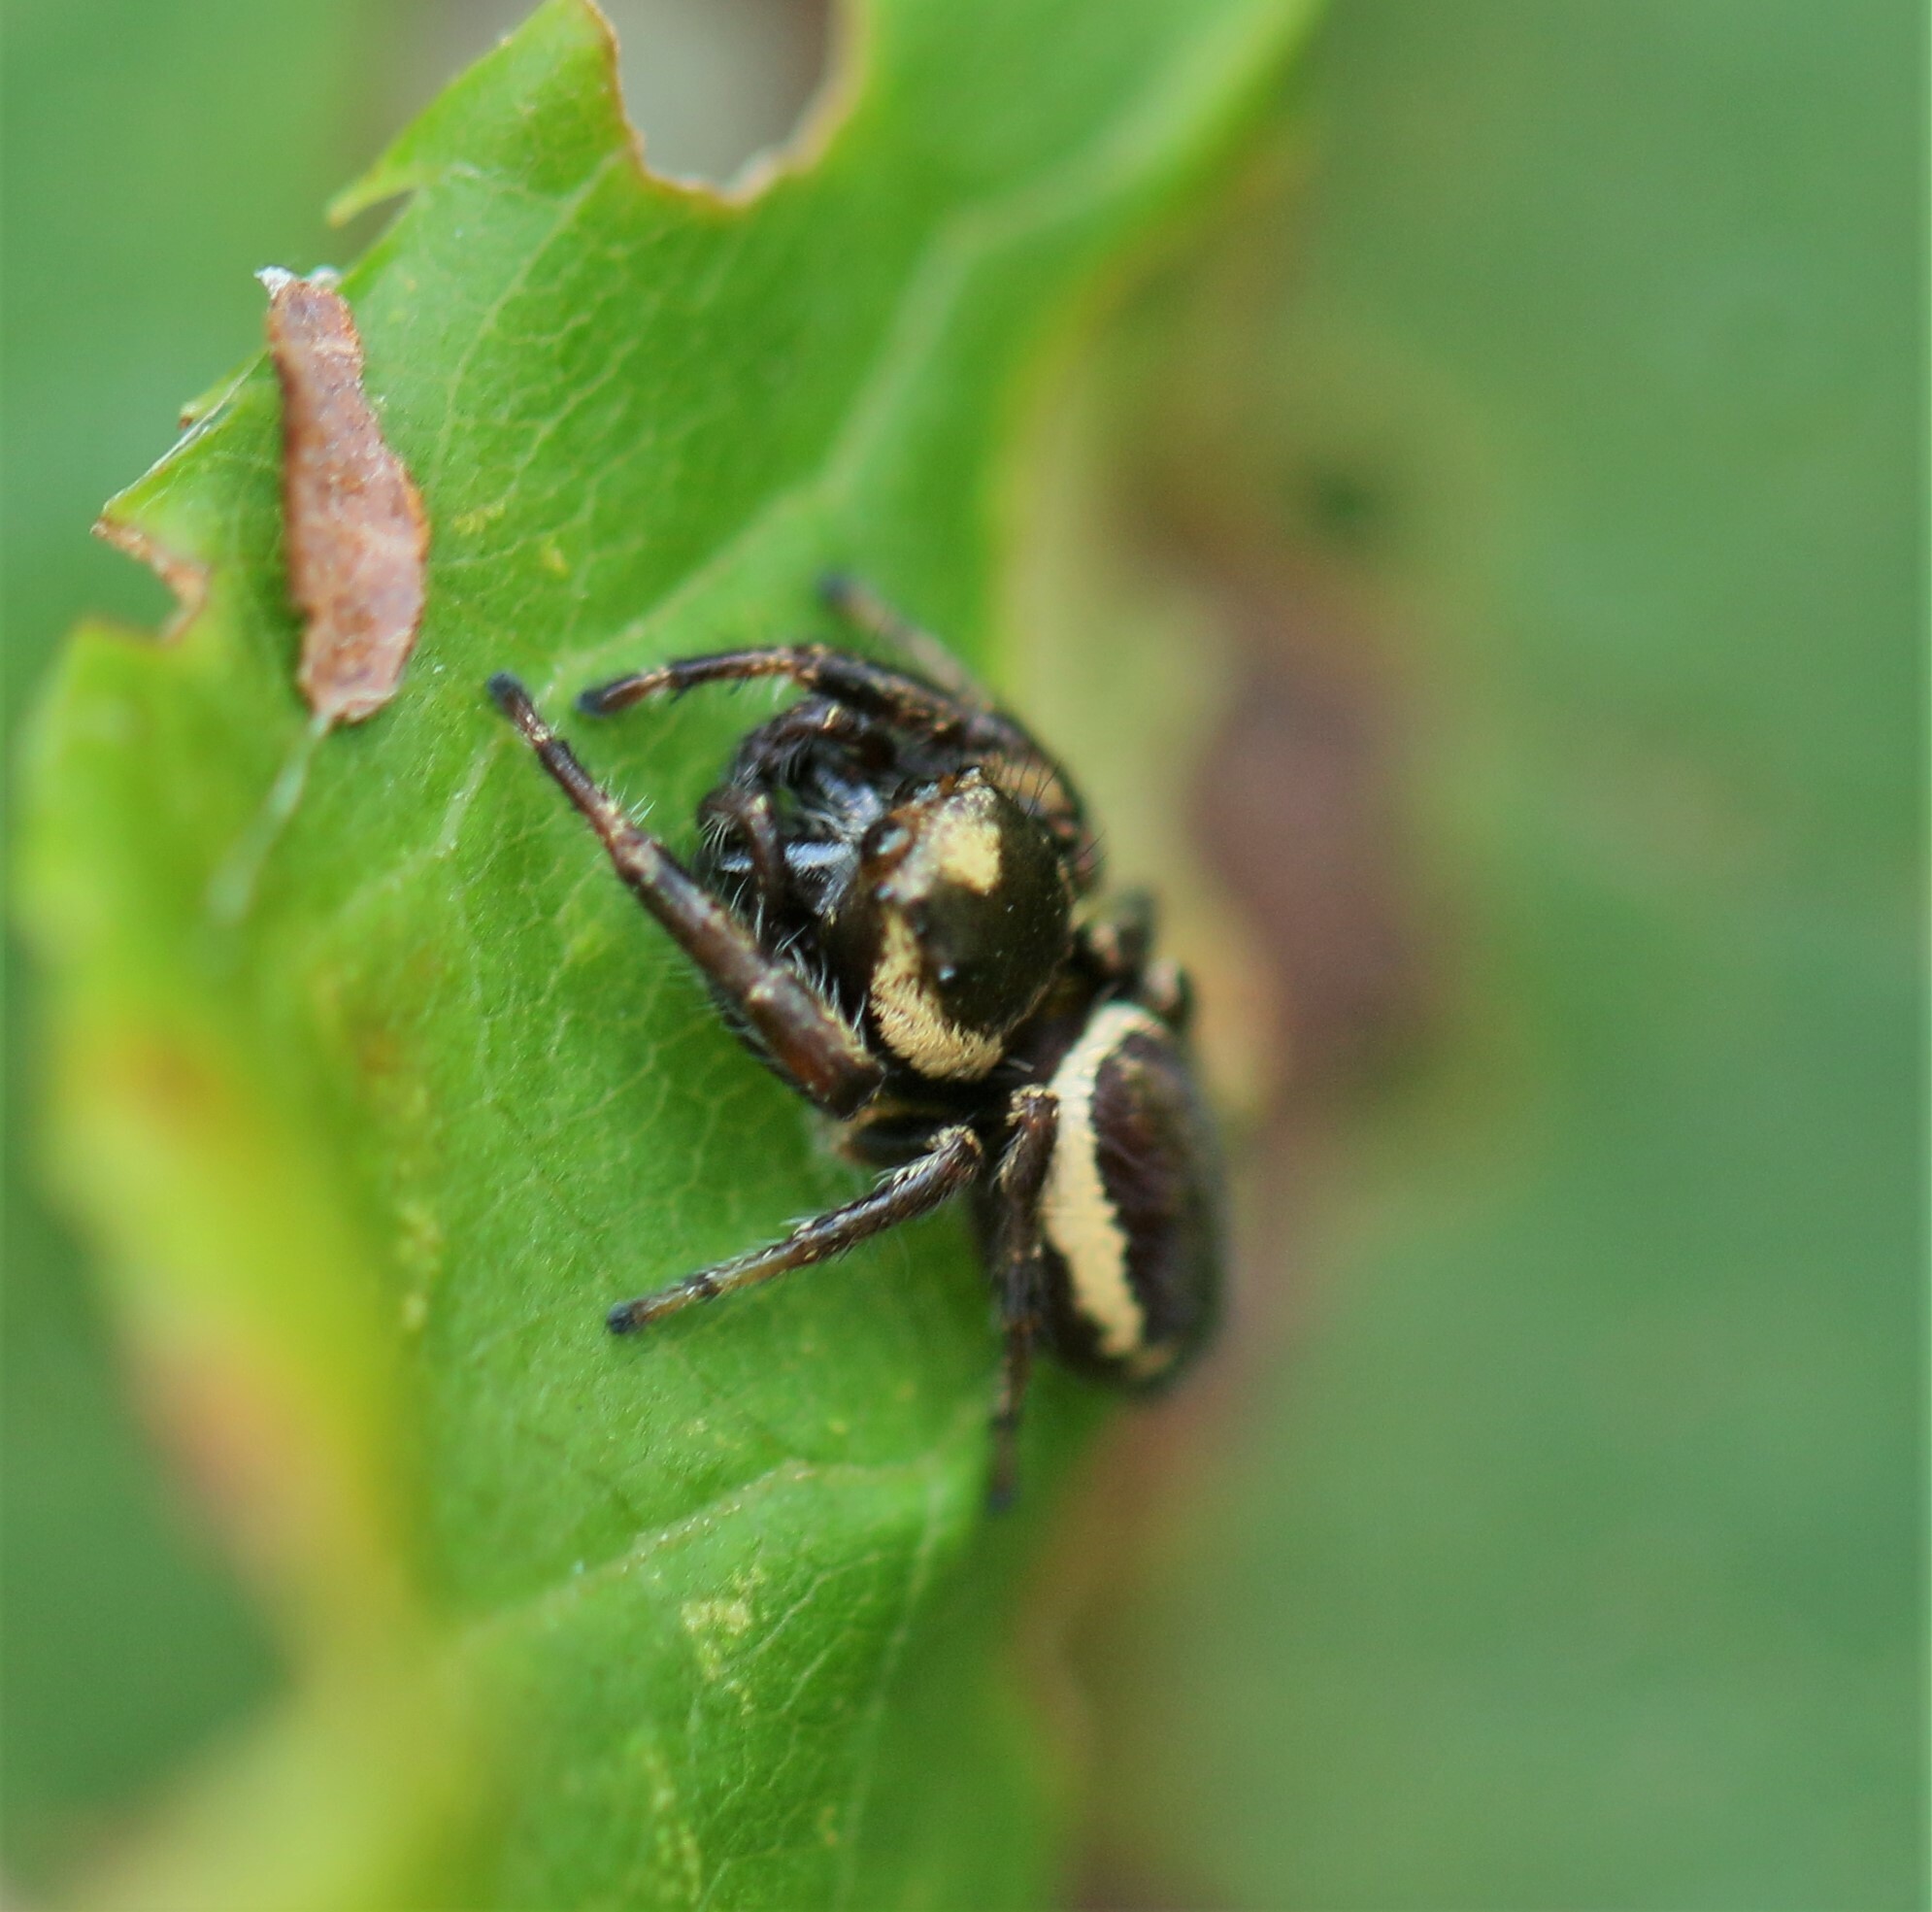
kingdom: Animalia
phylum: Arthropoda
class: Arachnida
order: Araneae
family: Salticidae
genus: Eris
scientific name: Eris militaris
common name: Bronze jumper
